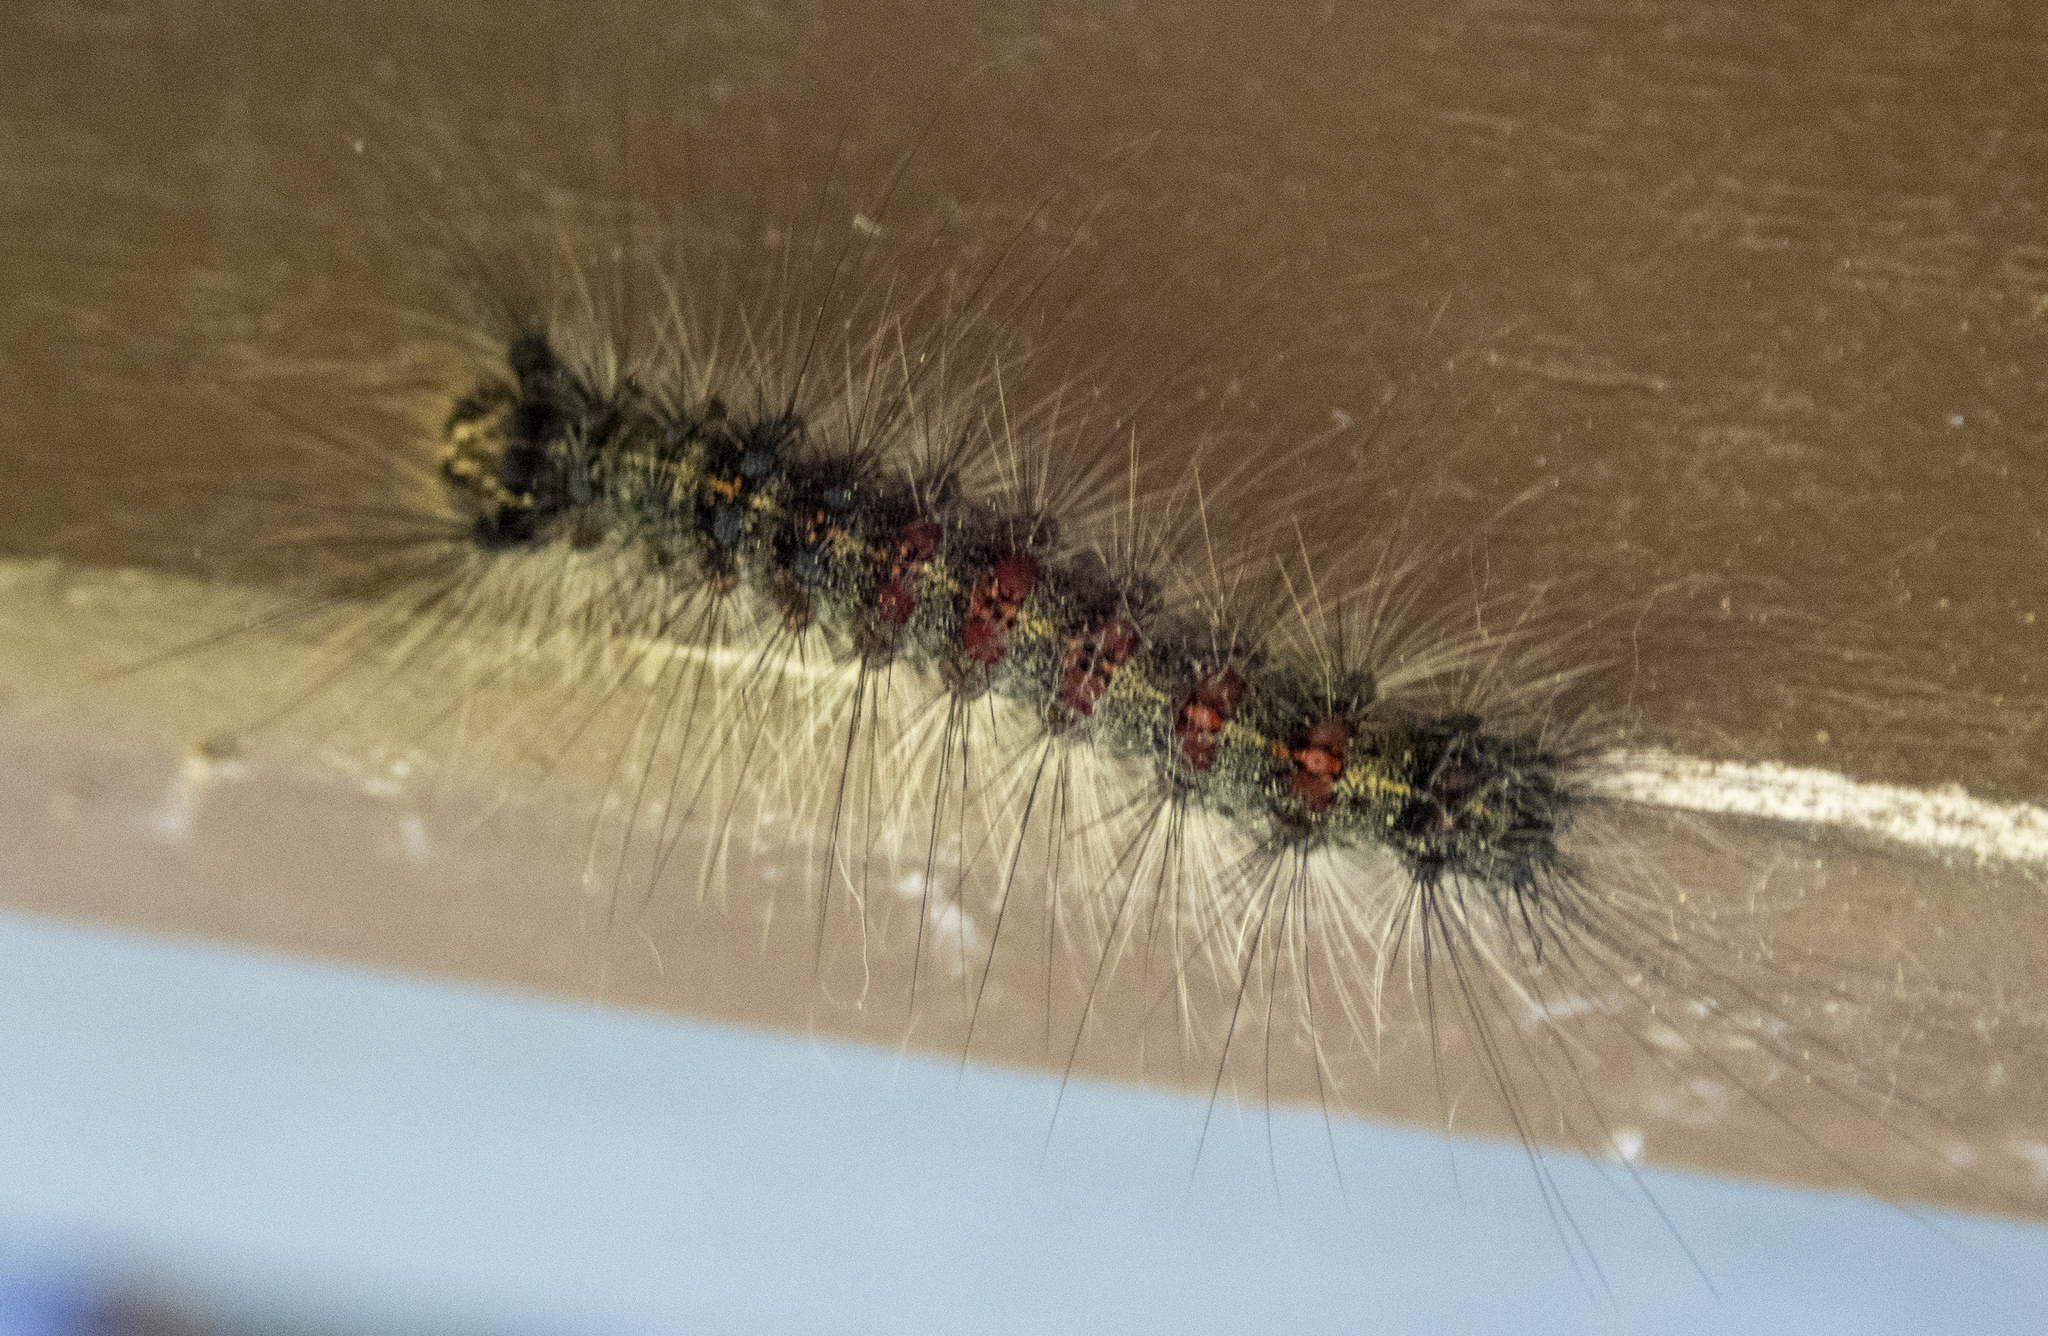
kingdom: Animalia
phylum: Arthropoda
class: Insecta
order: Lepidoptera
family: Erebidae
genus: Lymantria
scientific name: Lymantria dispar
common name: Gypsy moth
